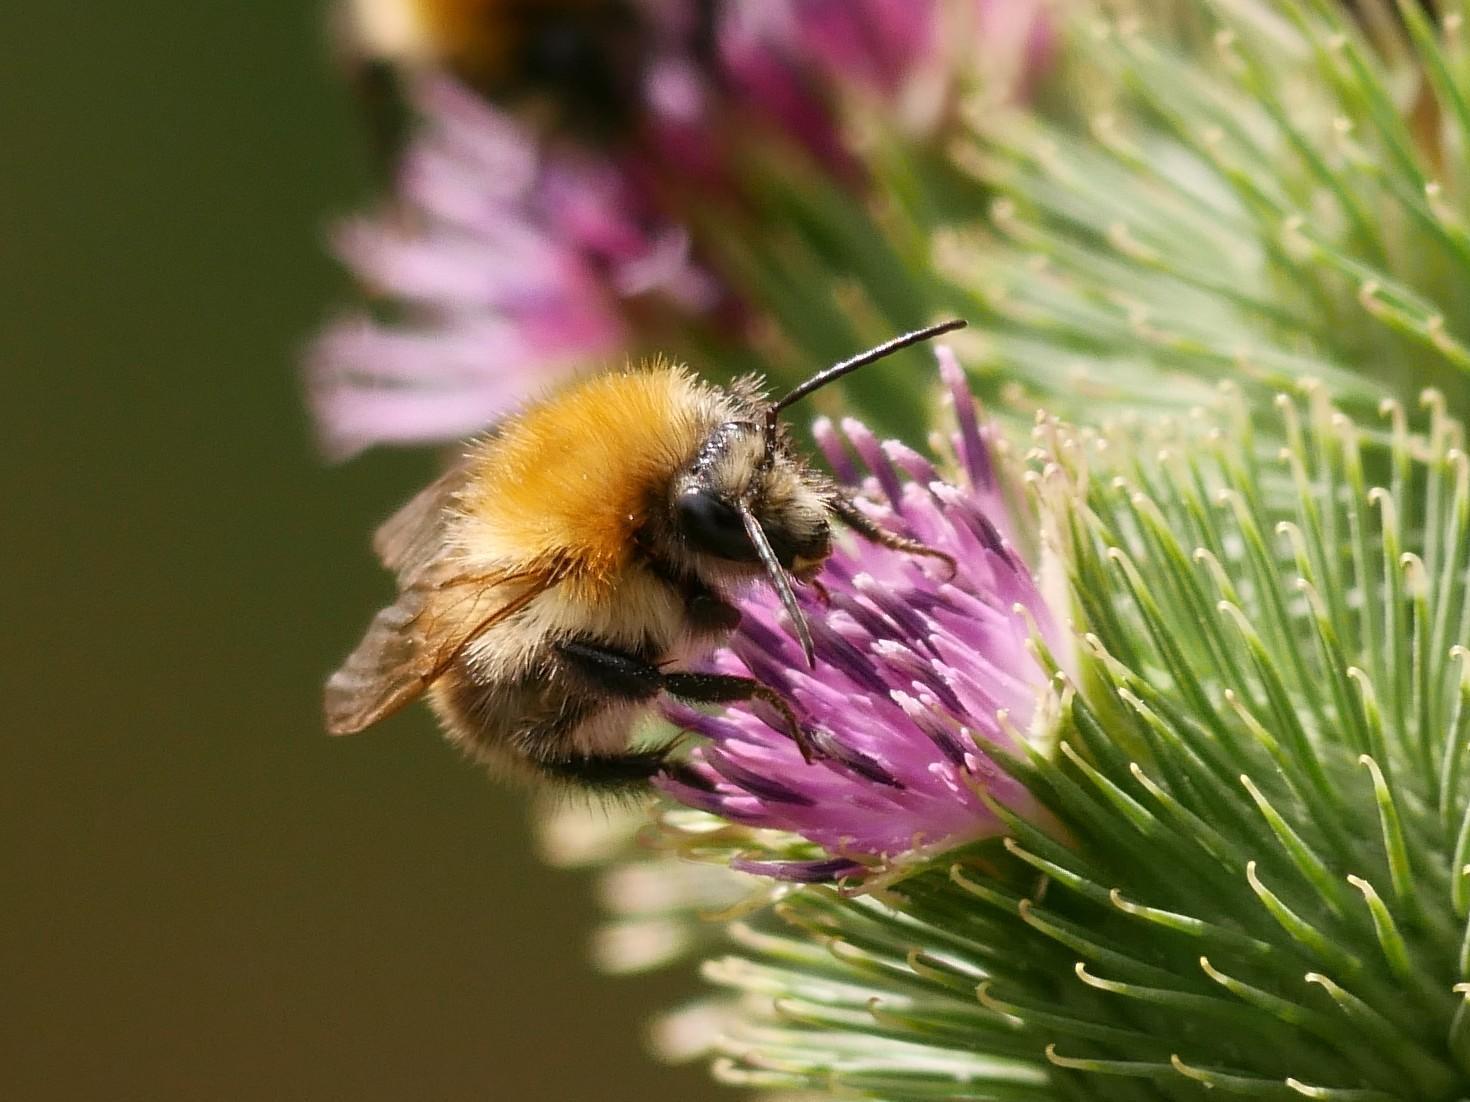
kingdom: Animalia
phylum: Arthropoda
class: Insecta
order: Hymenoptera
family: Apidae
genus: Bombus
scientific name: Bombus pascuorum
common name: Common carder bee
